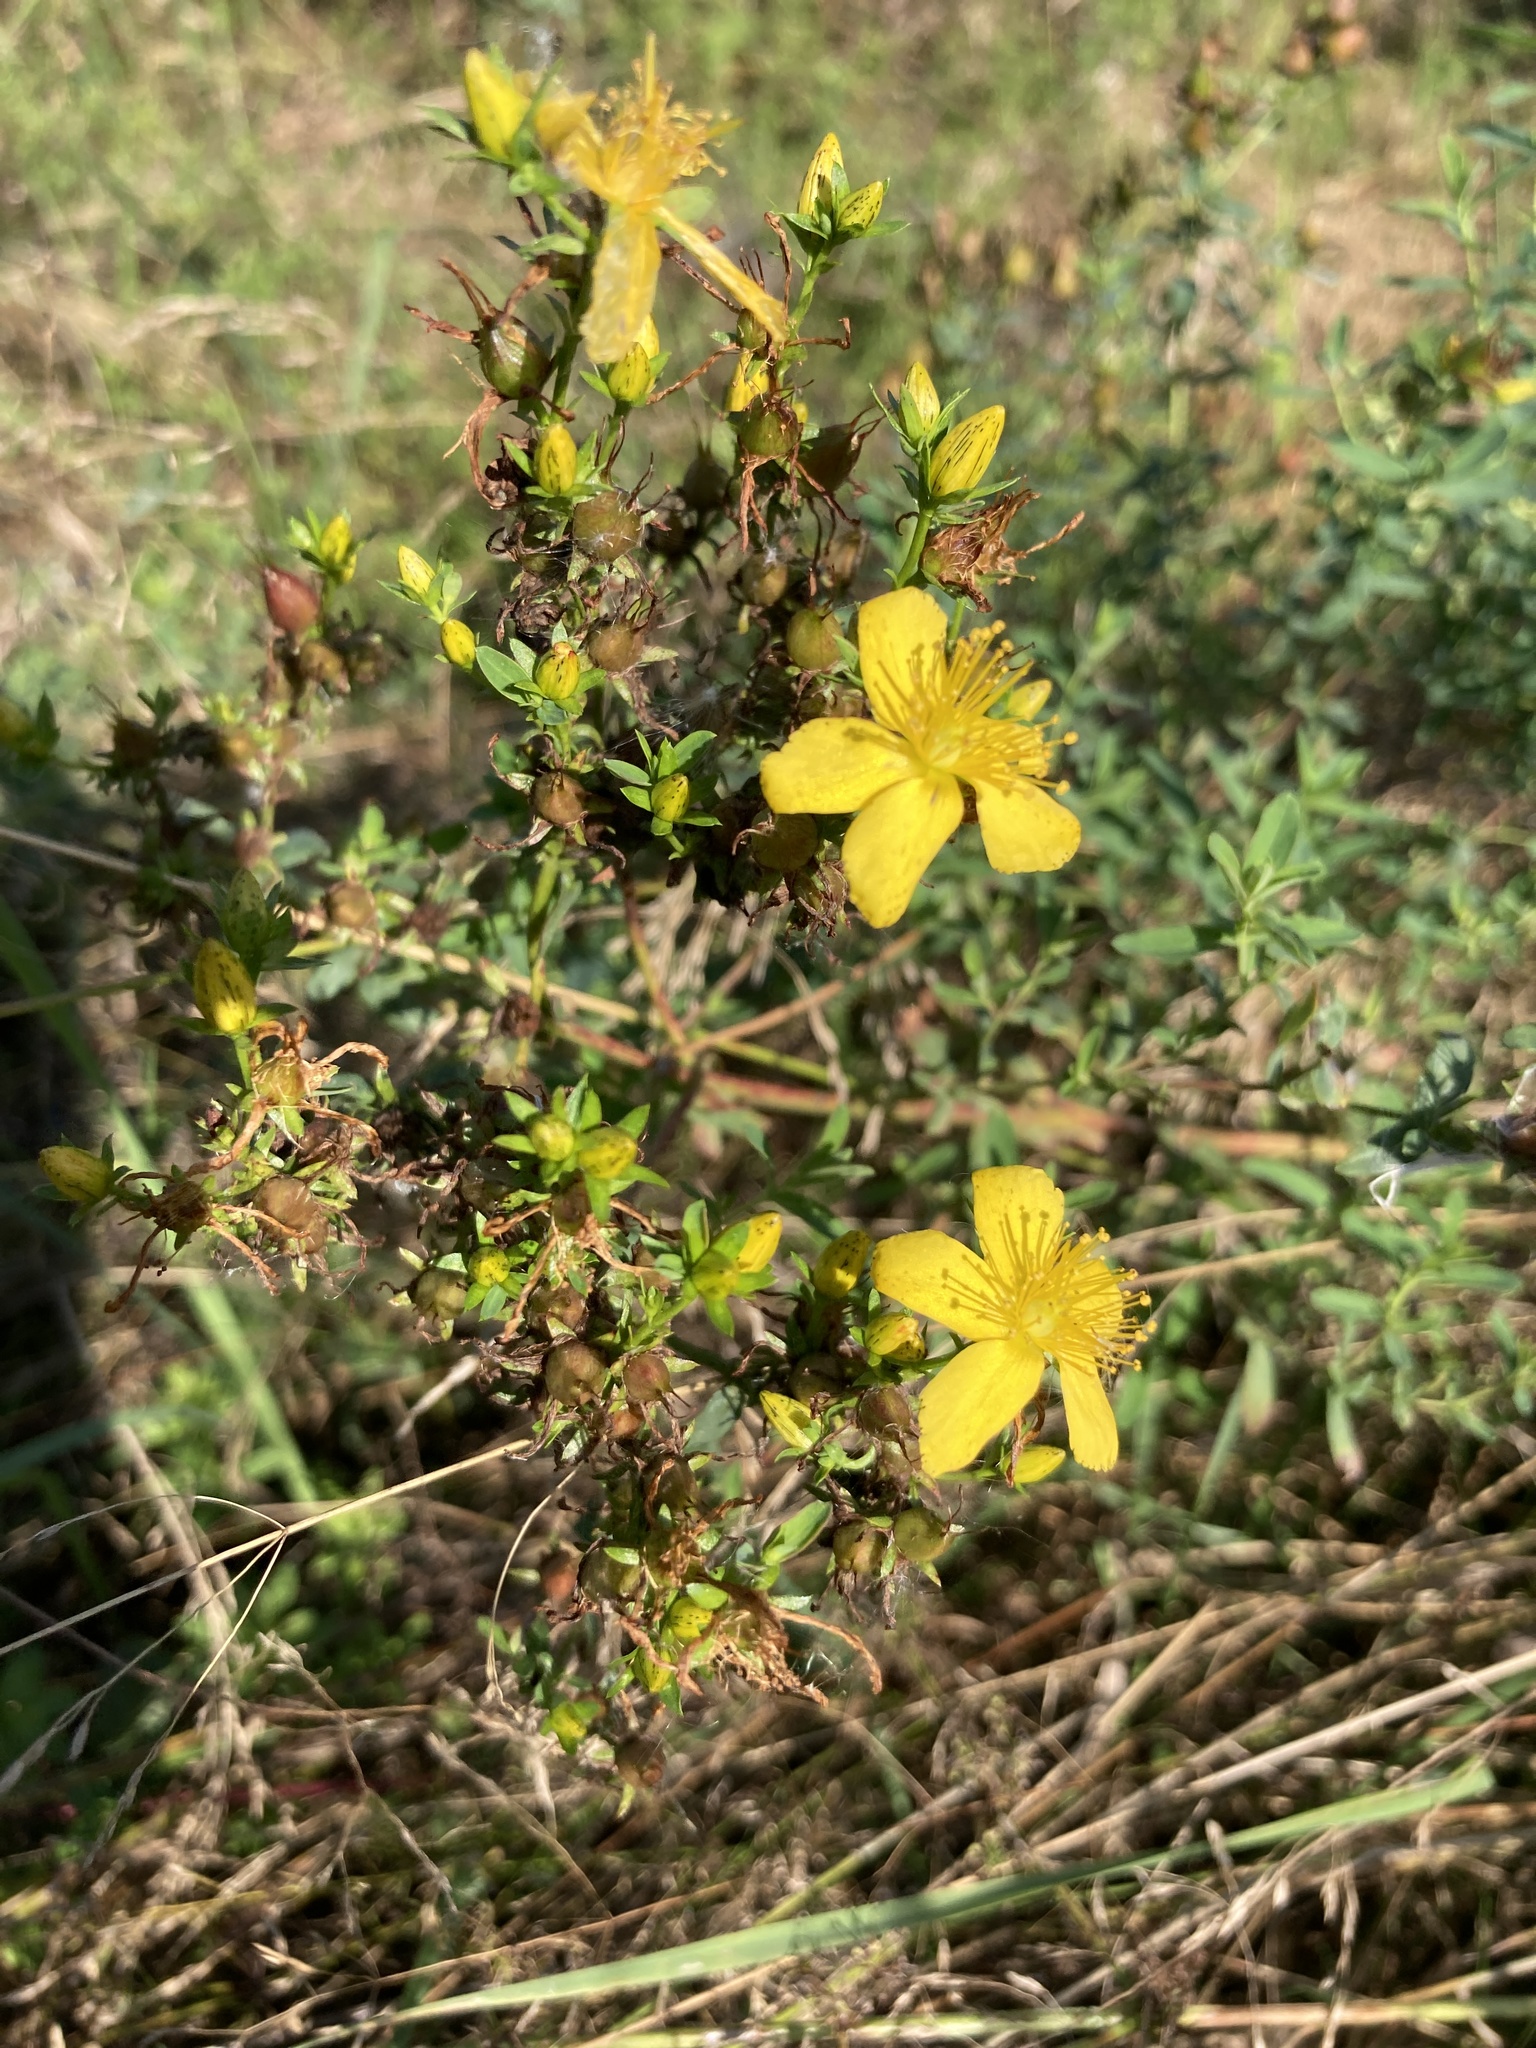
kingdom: Plantae
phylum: Tracheophyta
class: Magnoliopsida
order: Malpighiales
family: Hypericaceae
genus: Hypericum
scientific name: Hypericum perforatum
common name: Common st. johnswort
